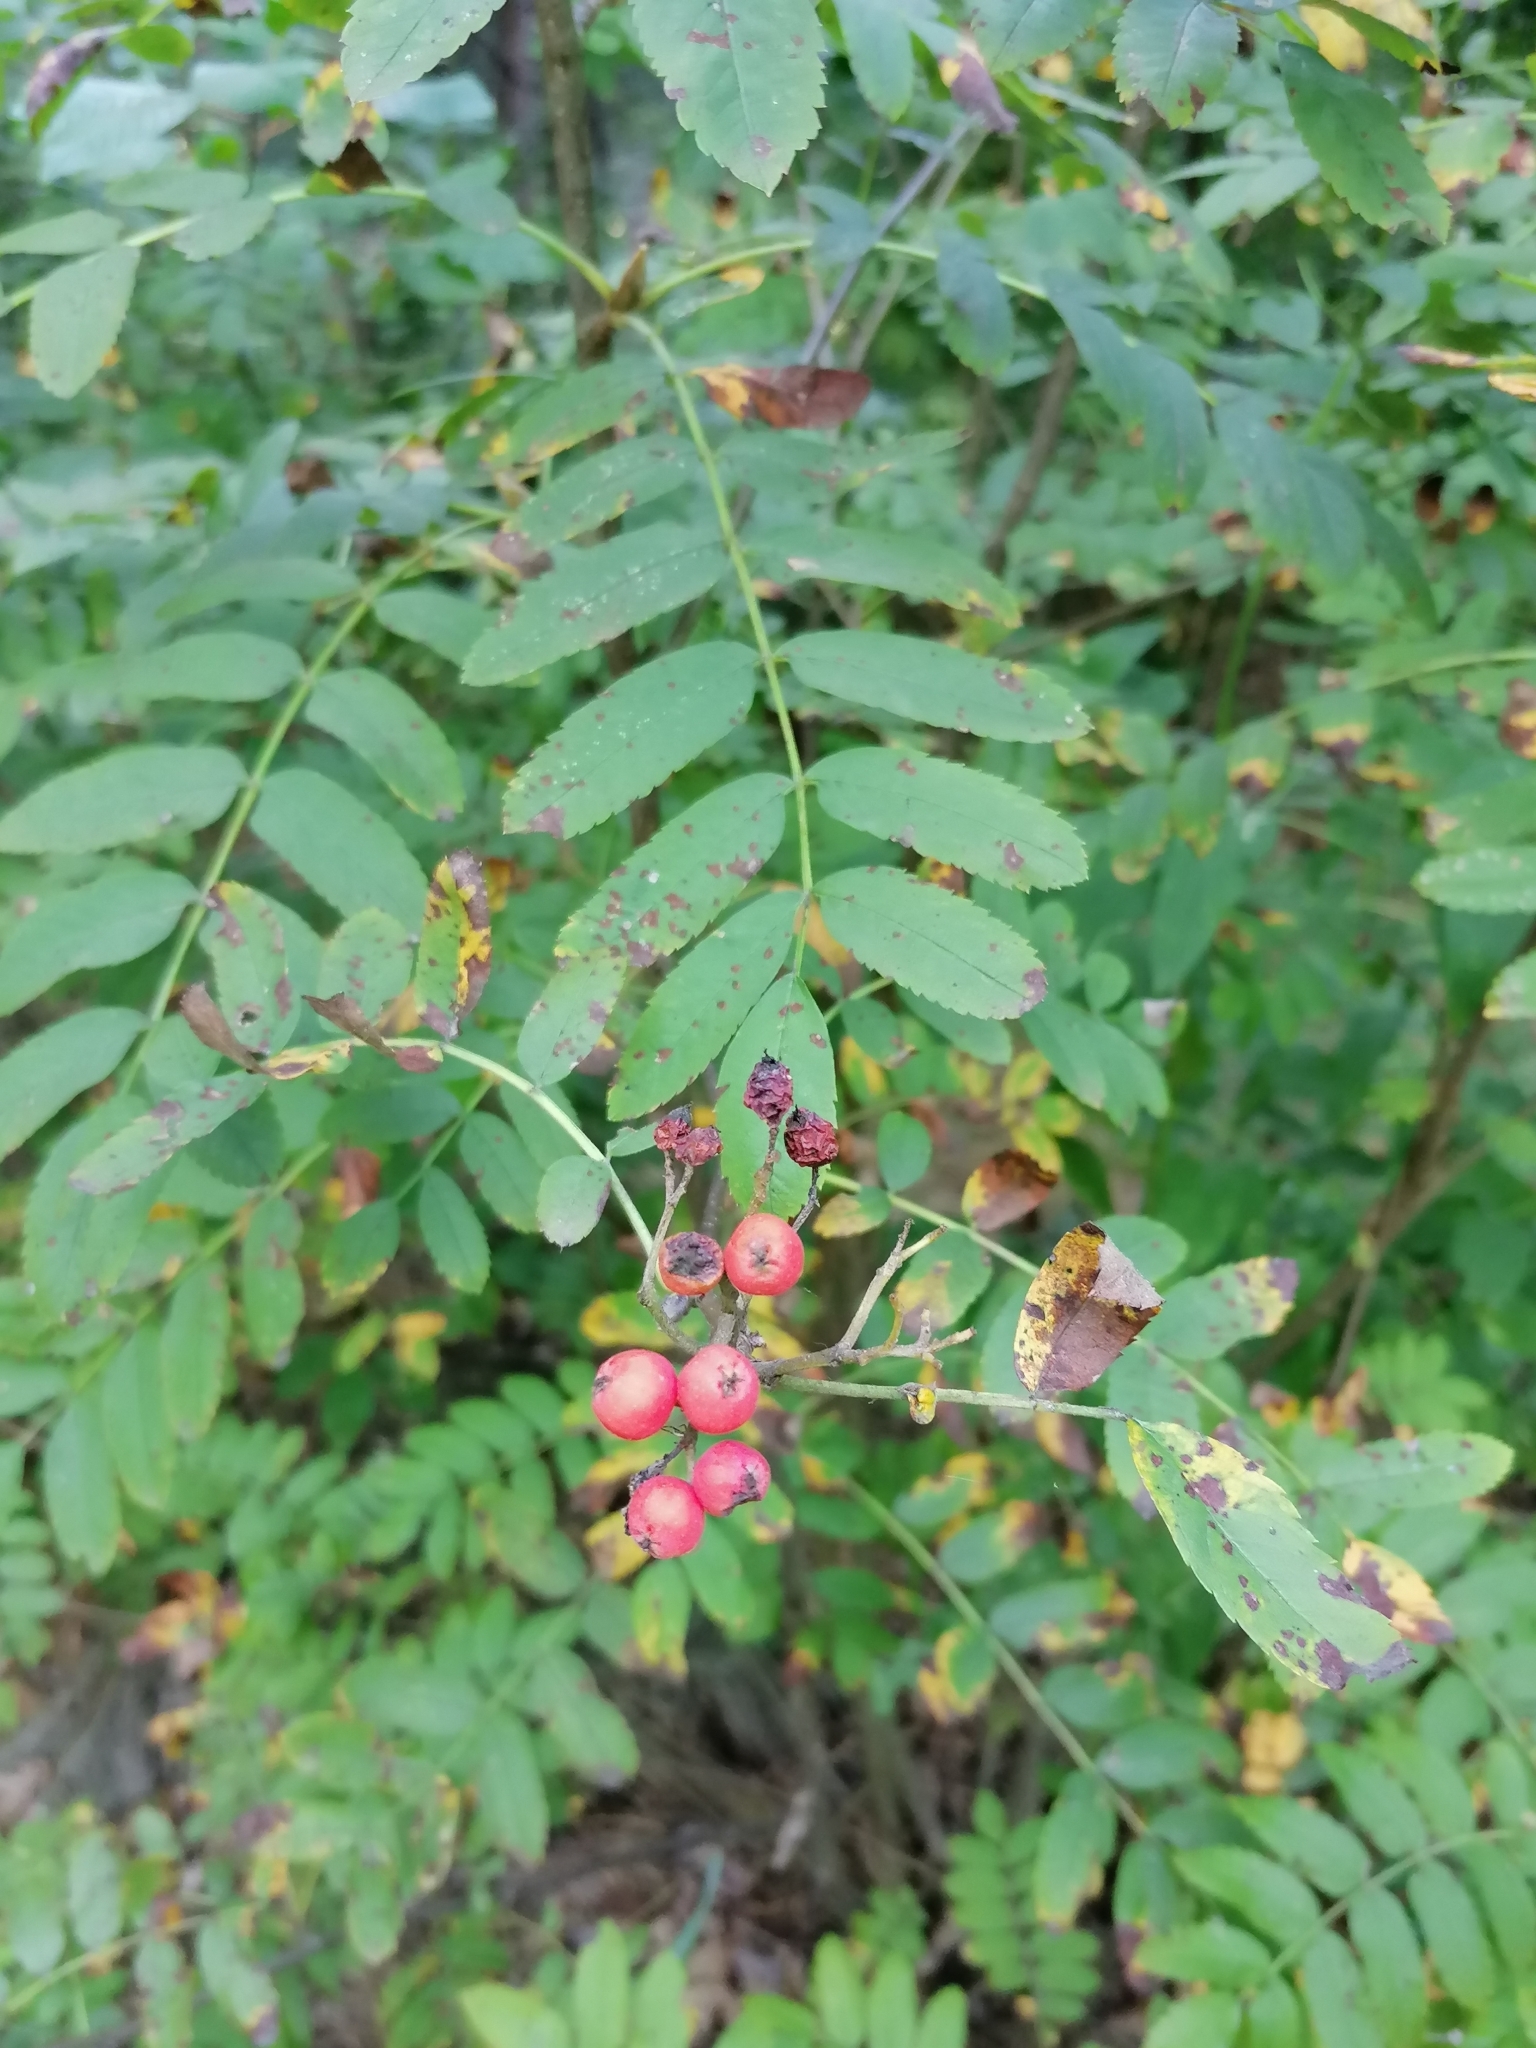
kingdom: Plantae
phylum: Tracheophyta
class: Magnoliopsida
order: Rosales
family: Rosaceae
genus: Sorbus
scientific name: Sorbus aucuparia
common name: Rowan
